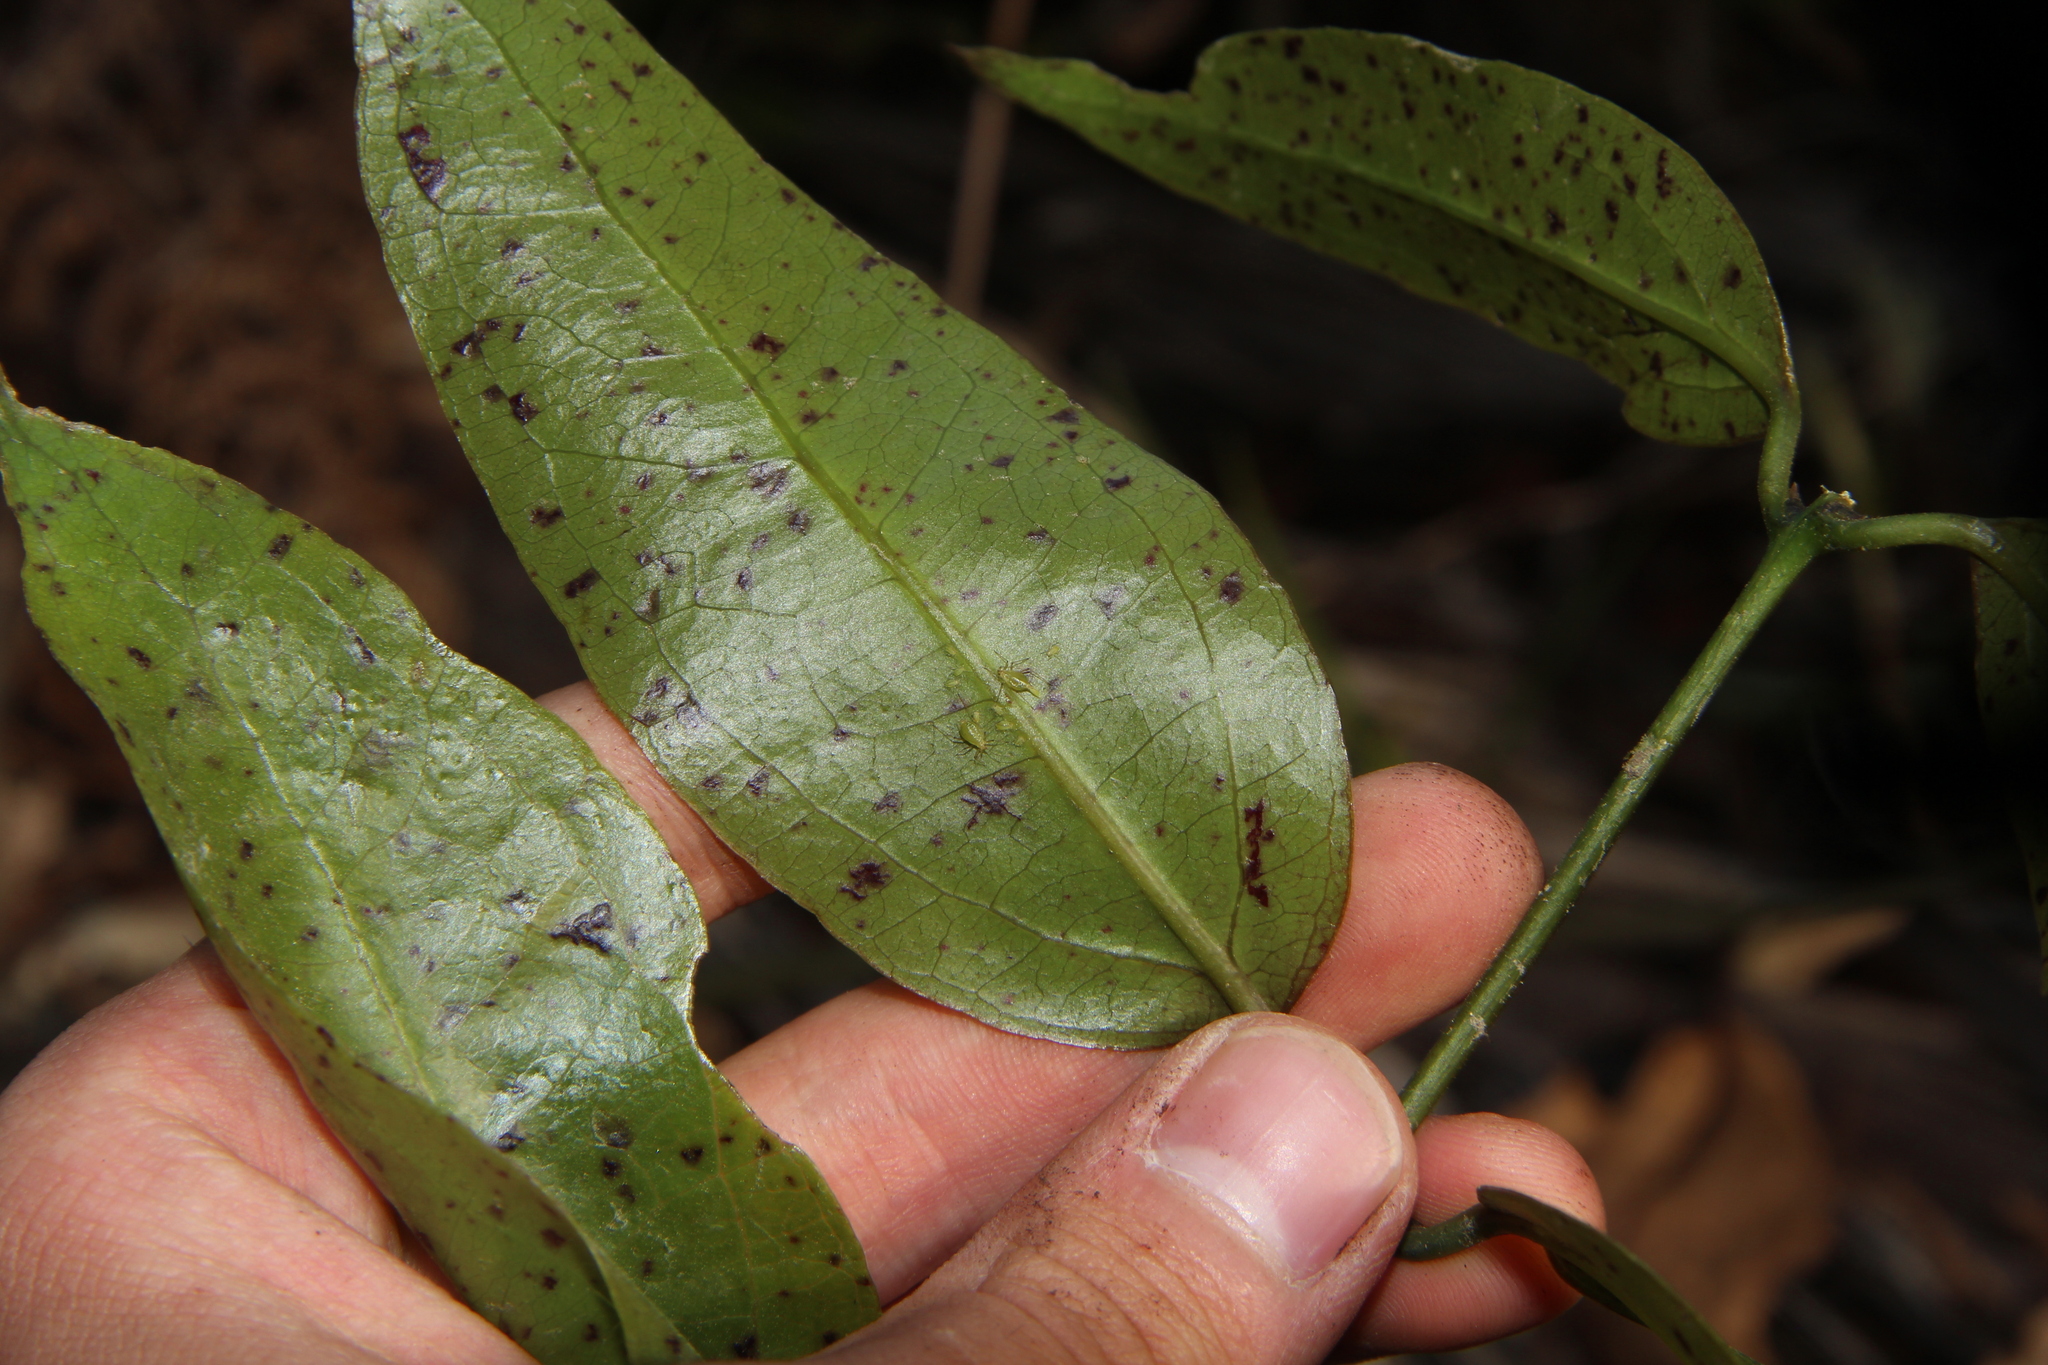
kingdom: Plantae
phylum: Tracheophyta
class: Liliopsida
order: Liliales
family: Ripogonaceae
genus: Ripogonum
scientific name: Ripogonum scandens
